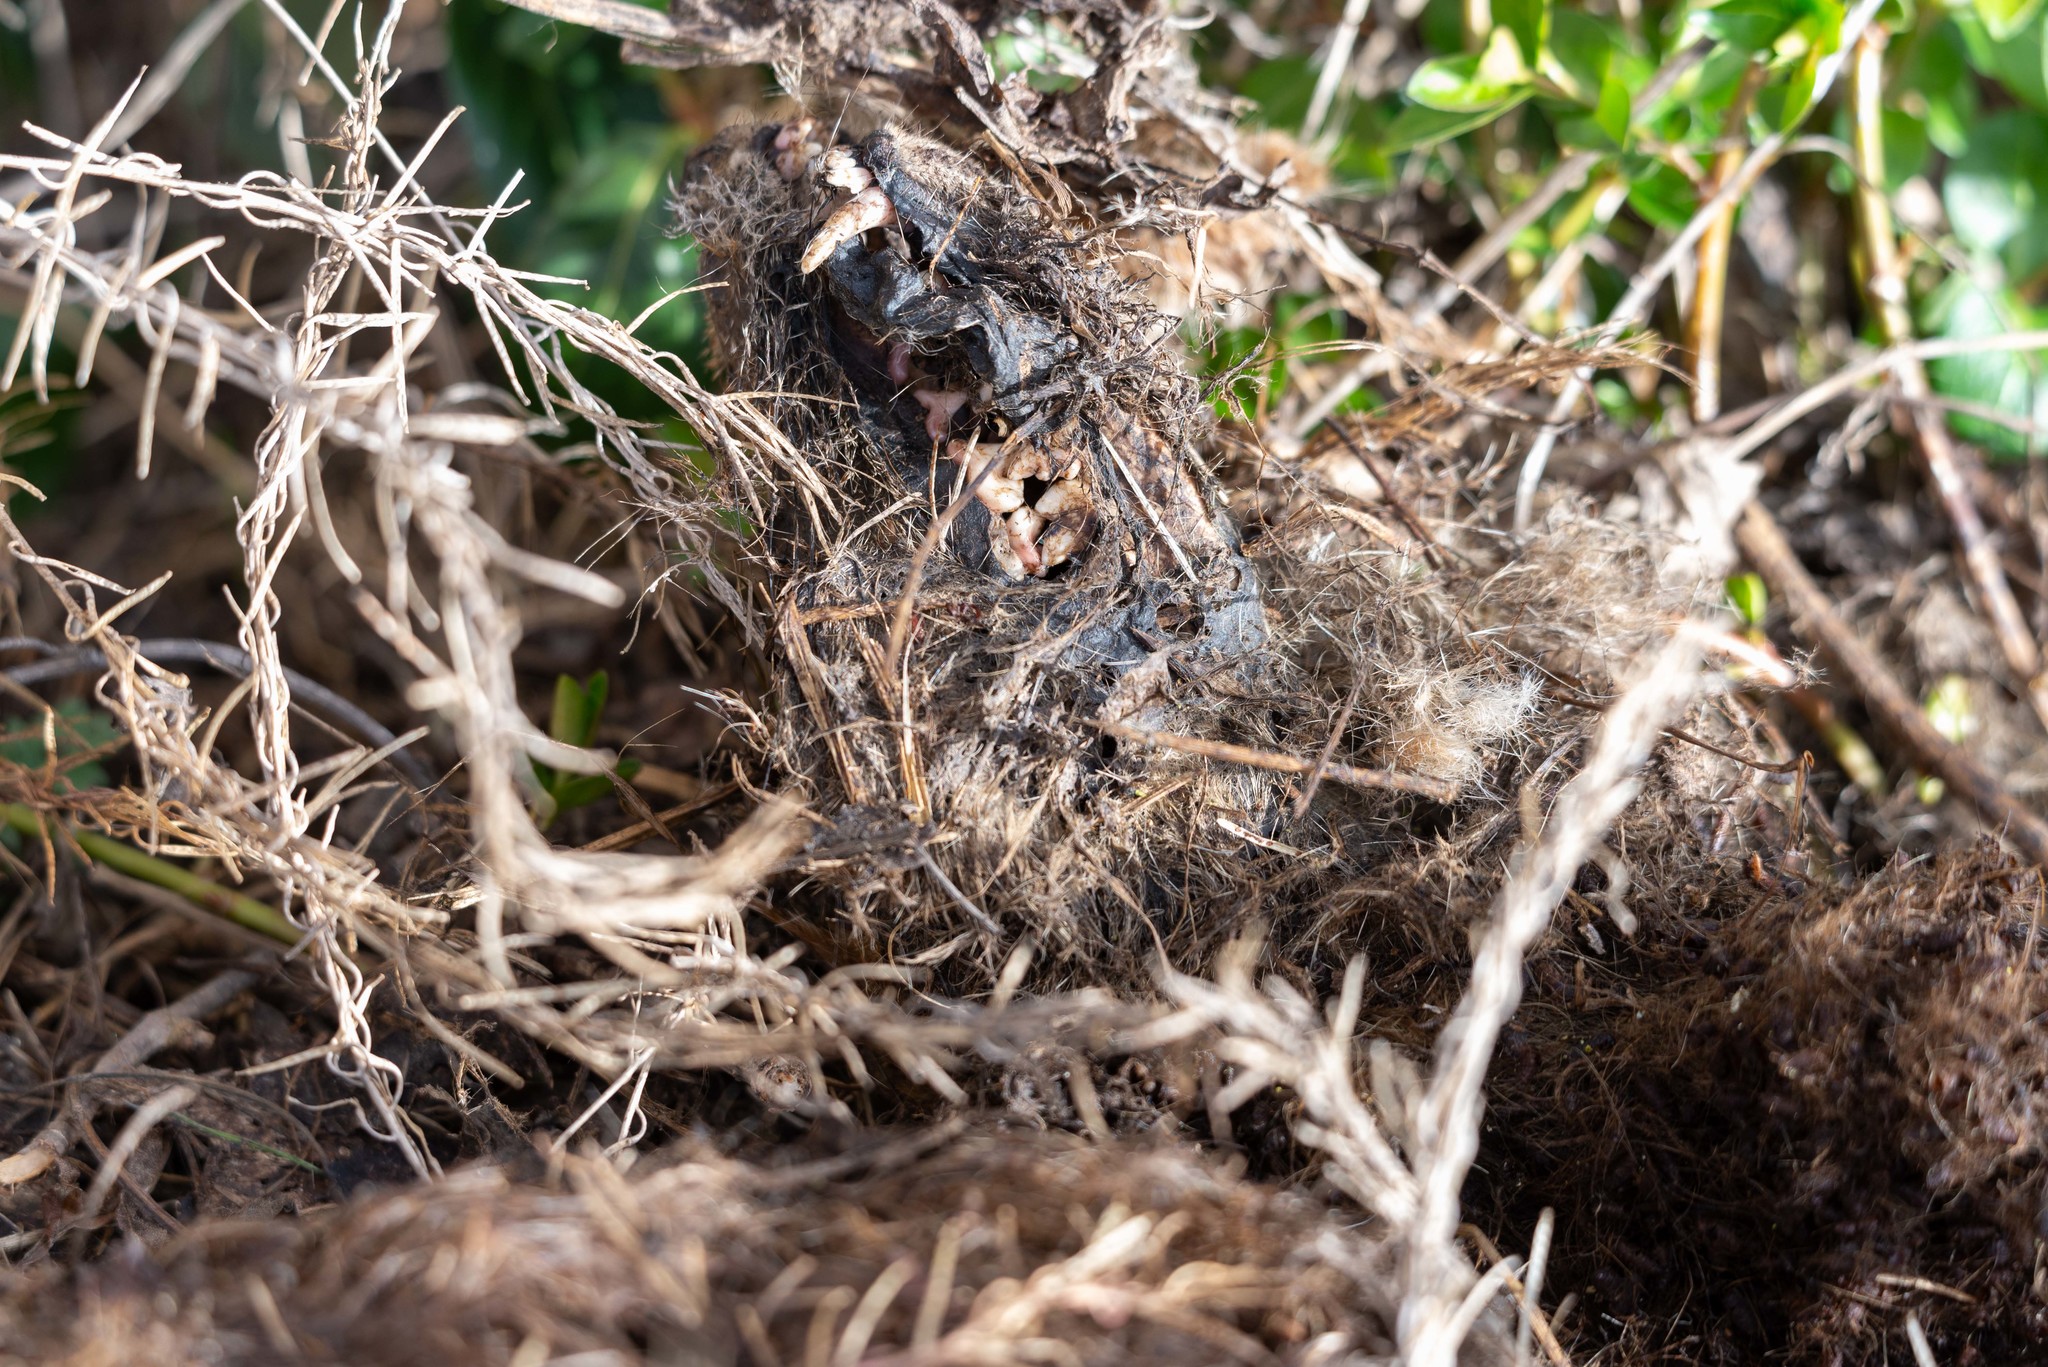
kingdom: Animalia
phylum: Chordata
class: Mammalia
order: Carnivora
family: Canidae
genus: Vulpes
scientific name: Vulpes vulpes
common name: Red fox
